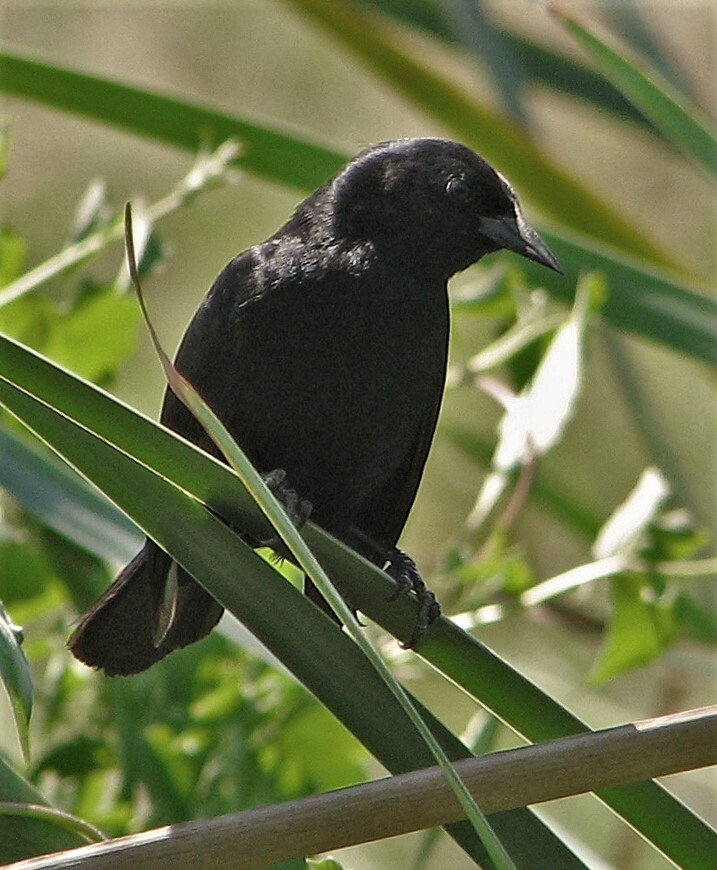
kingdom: Animalia
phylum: Chordata
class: Aves
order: Passeriformes
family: Icteridae
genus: Agelasticus
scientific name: Agelasticus cyanopus
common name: Unicolored blackbird
